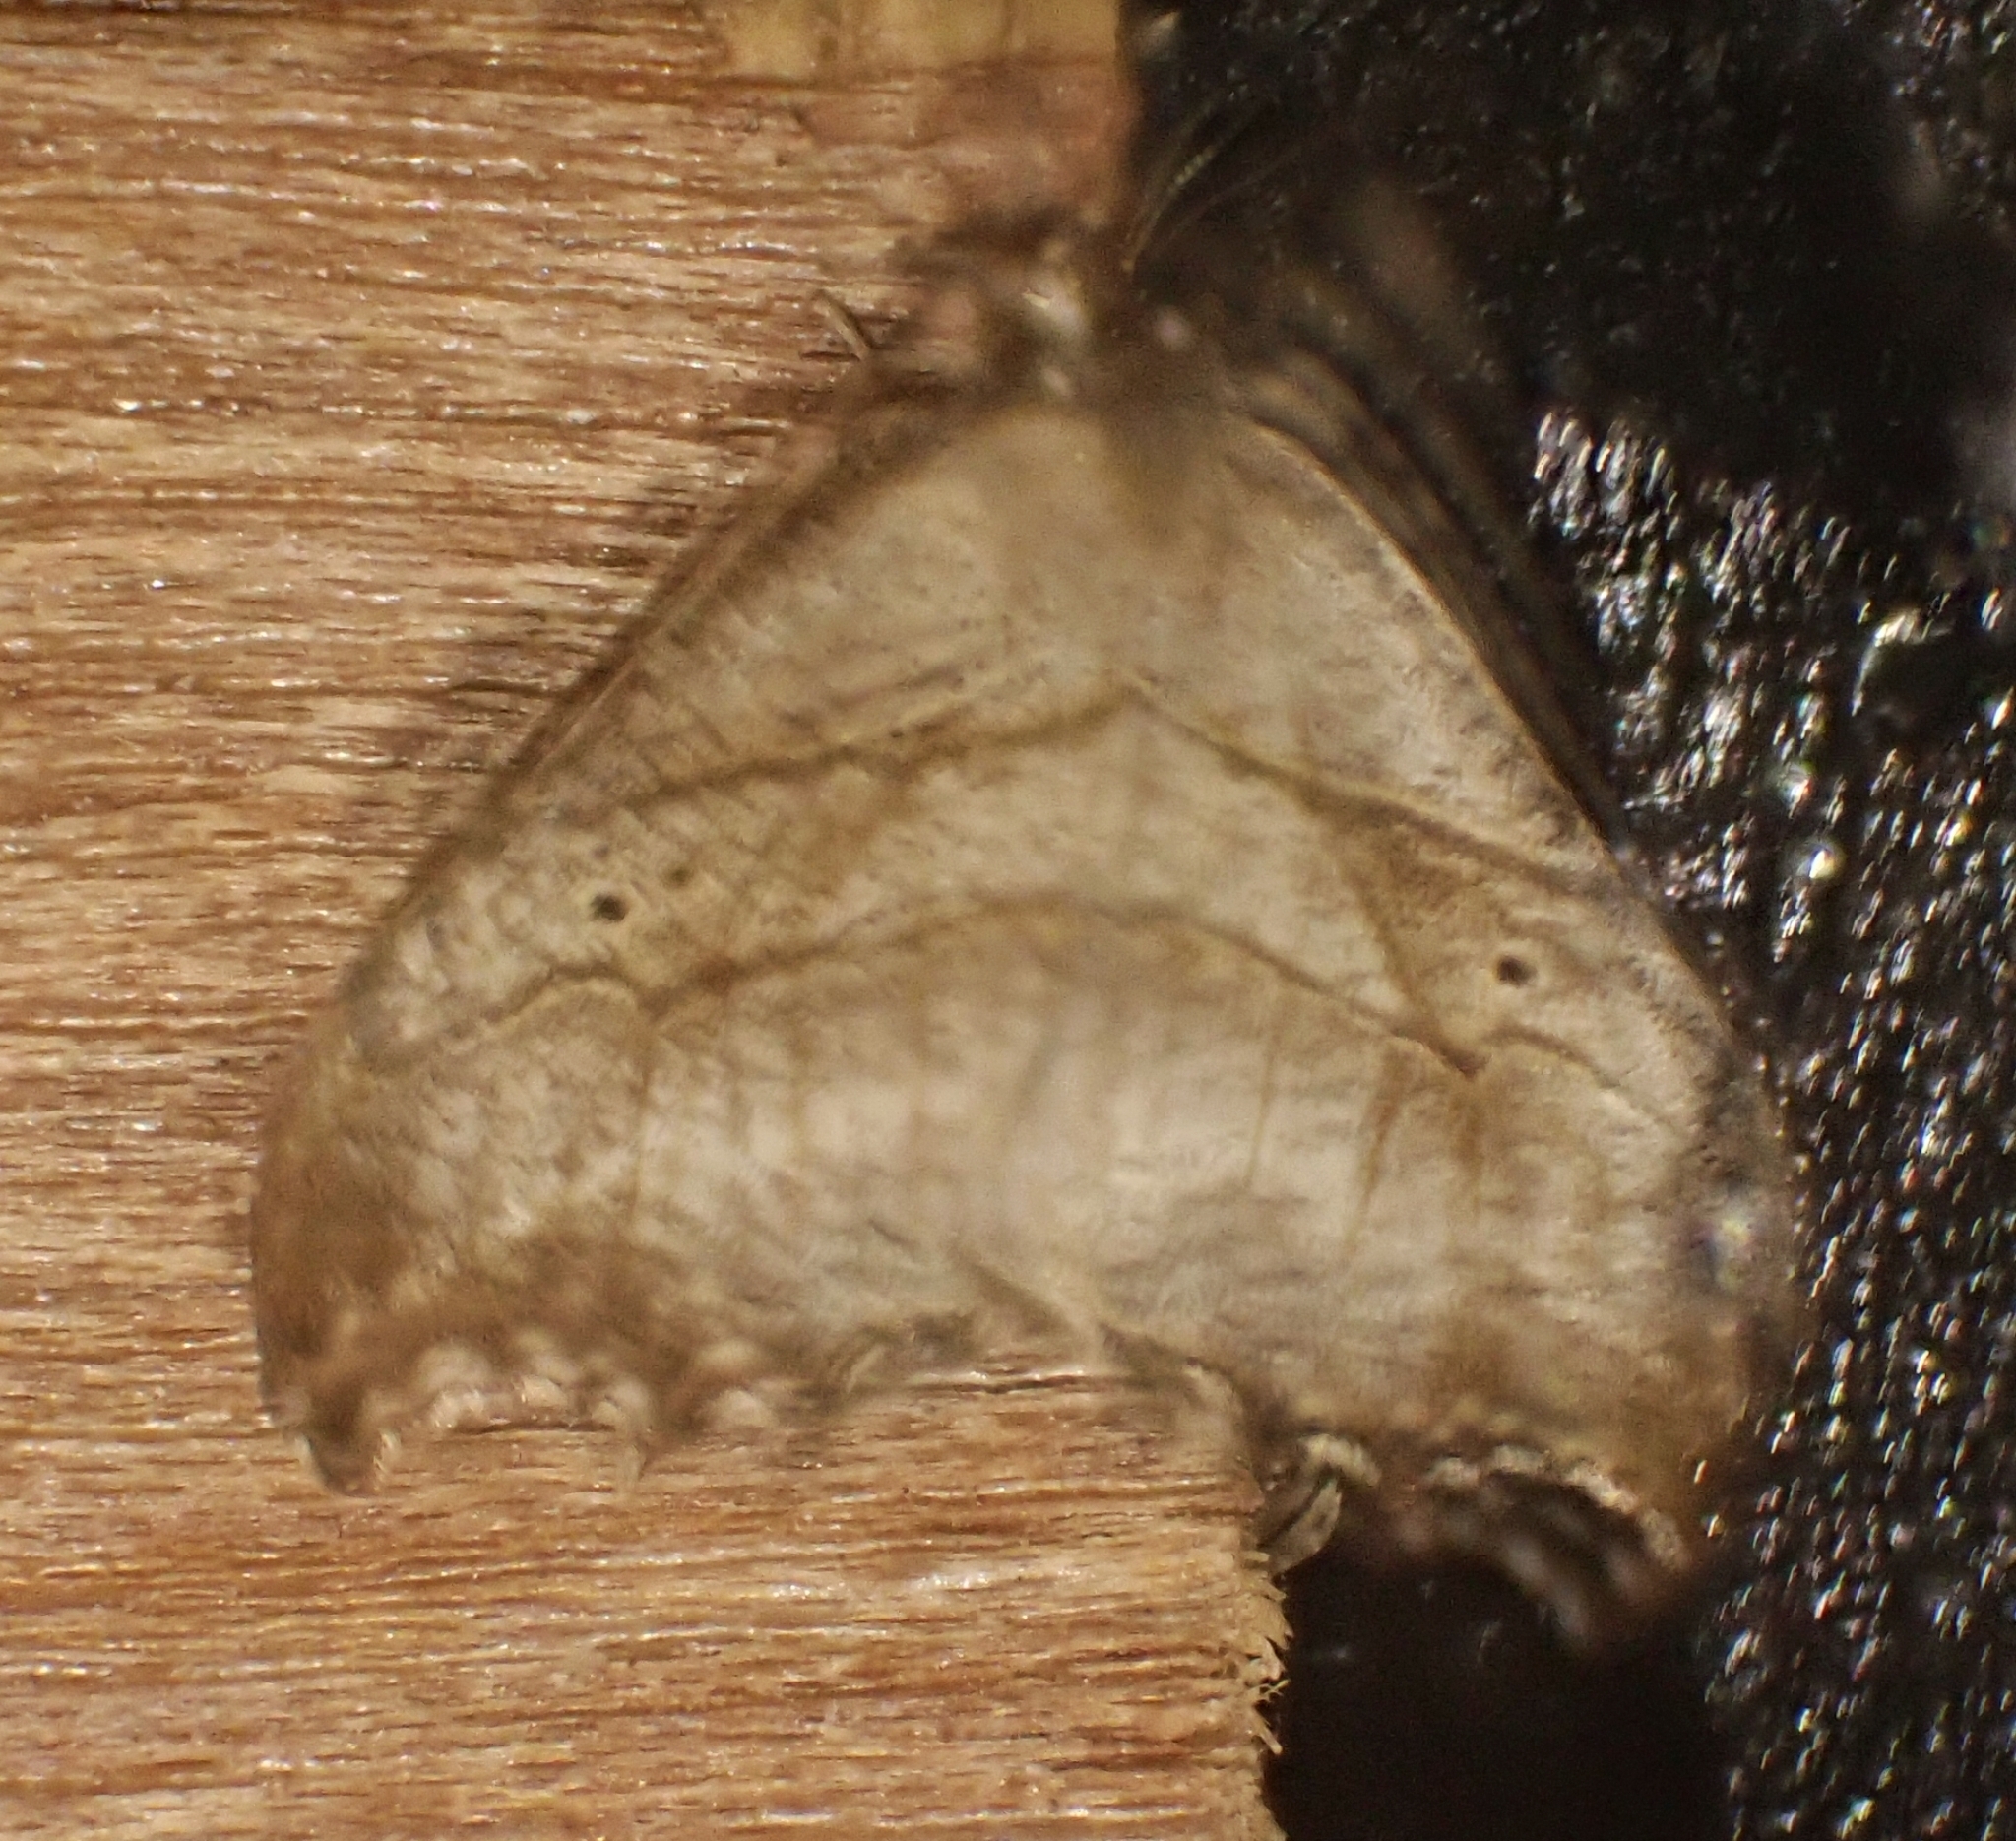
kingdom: Animalia
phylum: Arthropoda
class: Insecta
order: Lepidoptera
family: Drepanidae
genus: Falcaria
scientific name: Falcaria lacertinaria
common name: Scalloped hook-tip
